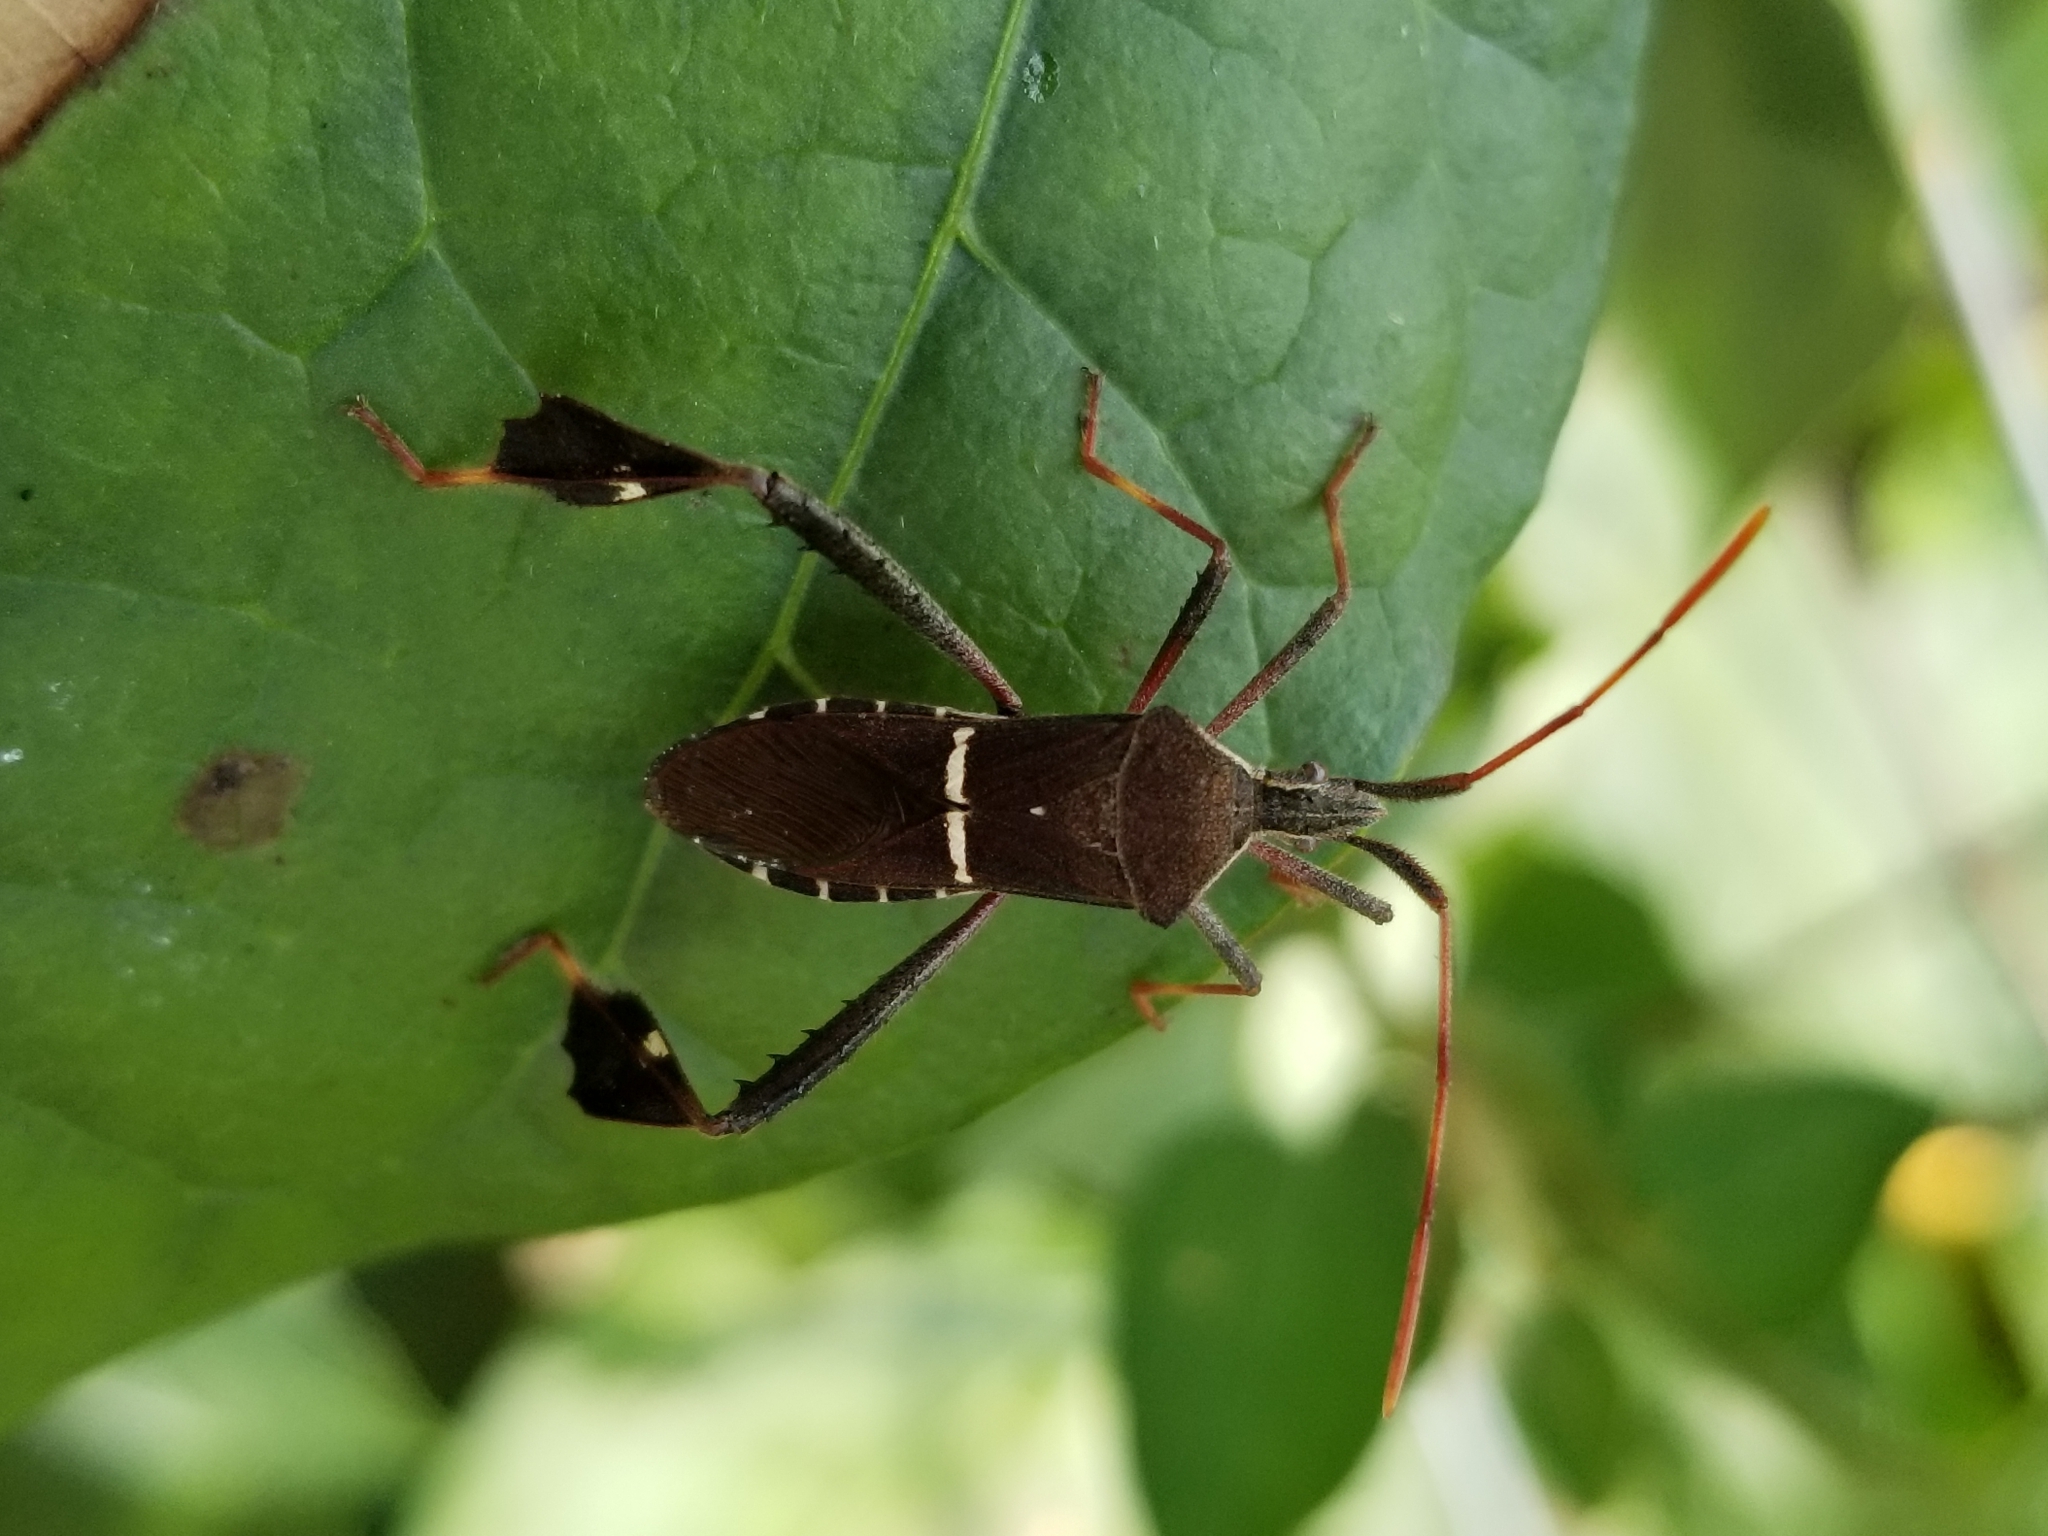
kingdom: Animalia
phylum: Arthropoda
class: Insecta
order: Hemiptera
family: Coreidae
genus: Leptoglossus
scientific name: Leptoglossus phyllopus
